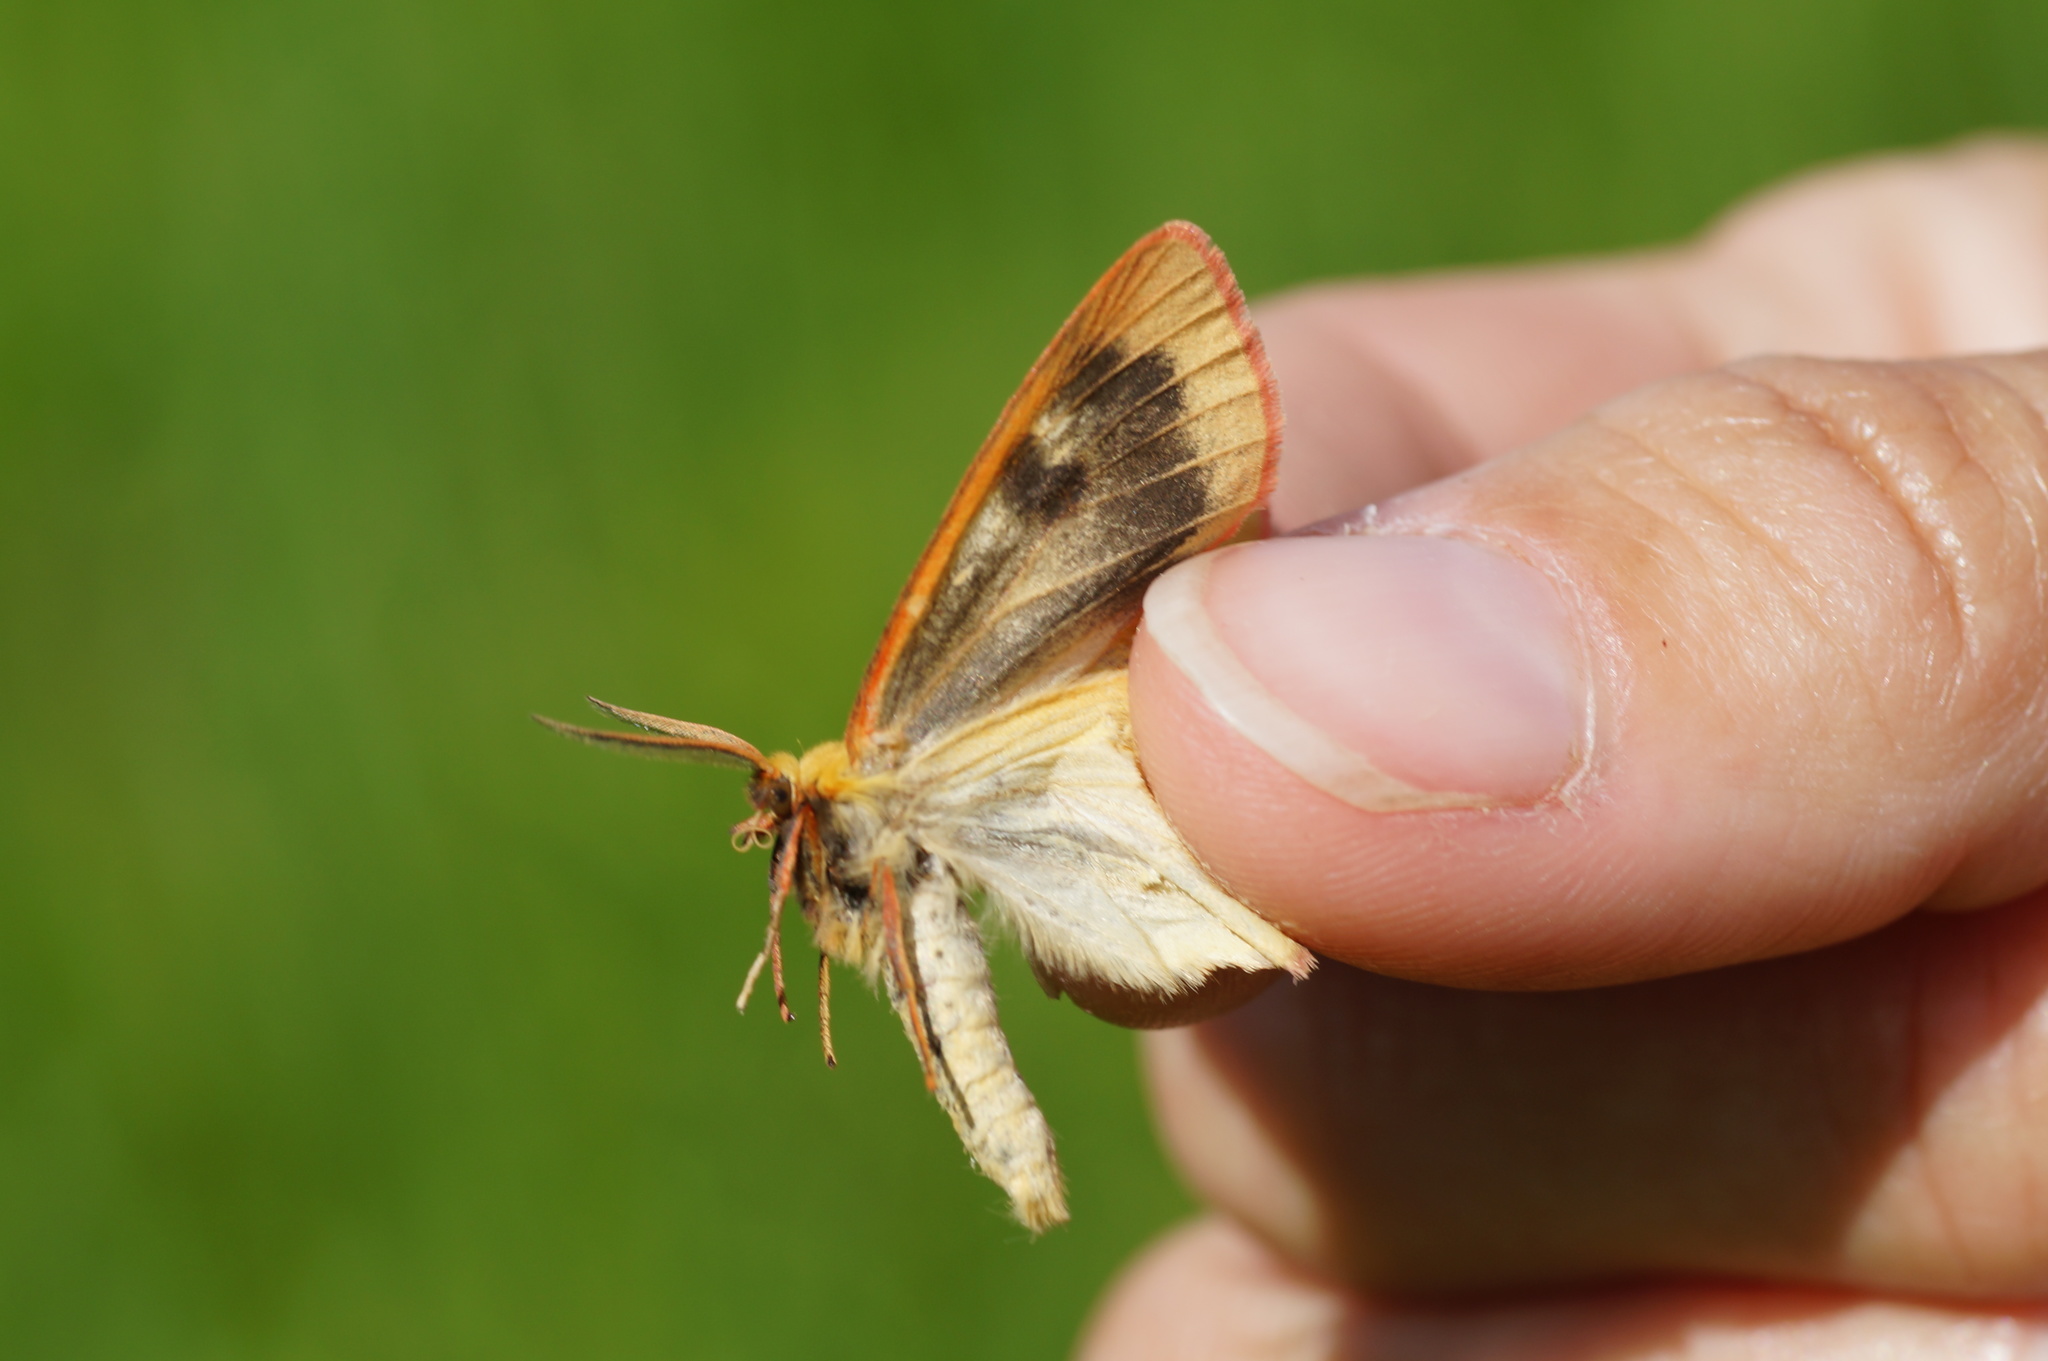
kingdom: Animalia
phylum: Arthropoda
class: Insecta
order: Lepidoptera
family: Erebidae
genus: Diacrisia
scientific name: Diacrisia sannio
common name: Clouded buff
